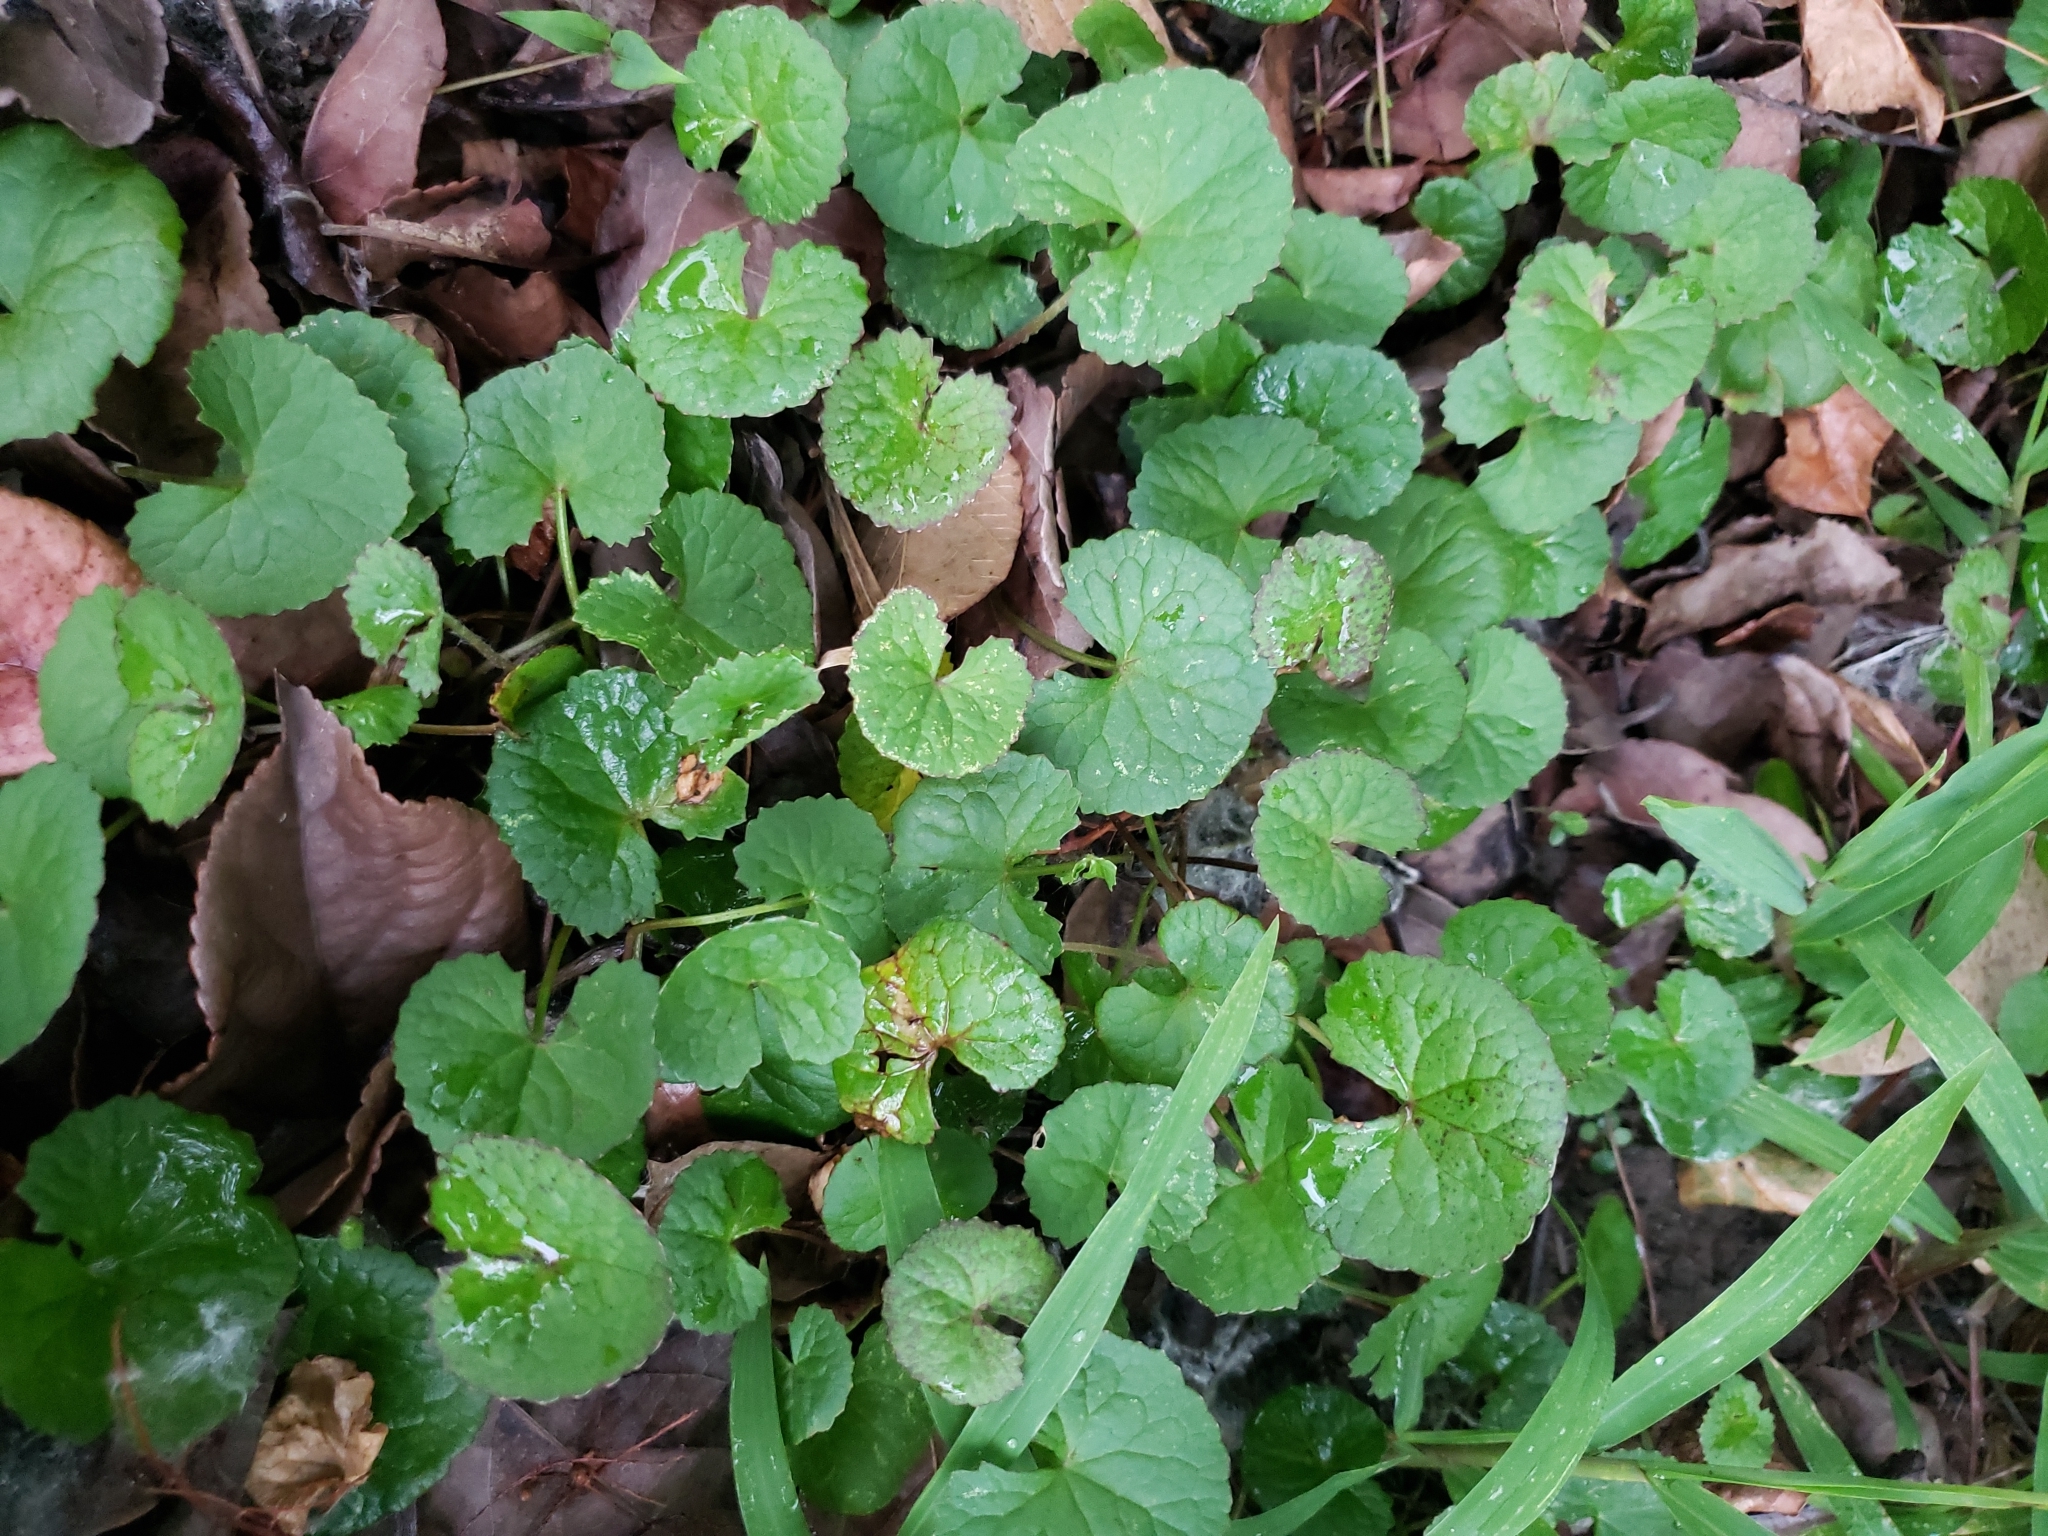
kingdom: Plantae
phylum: Tracheophyta
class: Magnoliopsida
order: Apiales
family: Apiaceae
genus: Centella
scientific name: Centella asiatica
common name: Spadeleaf
